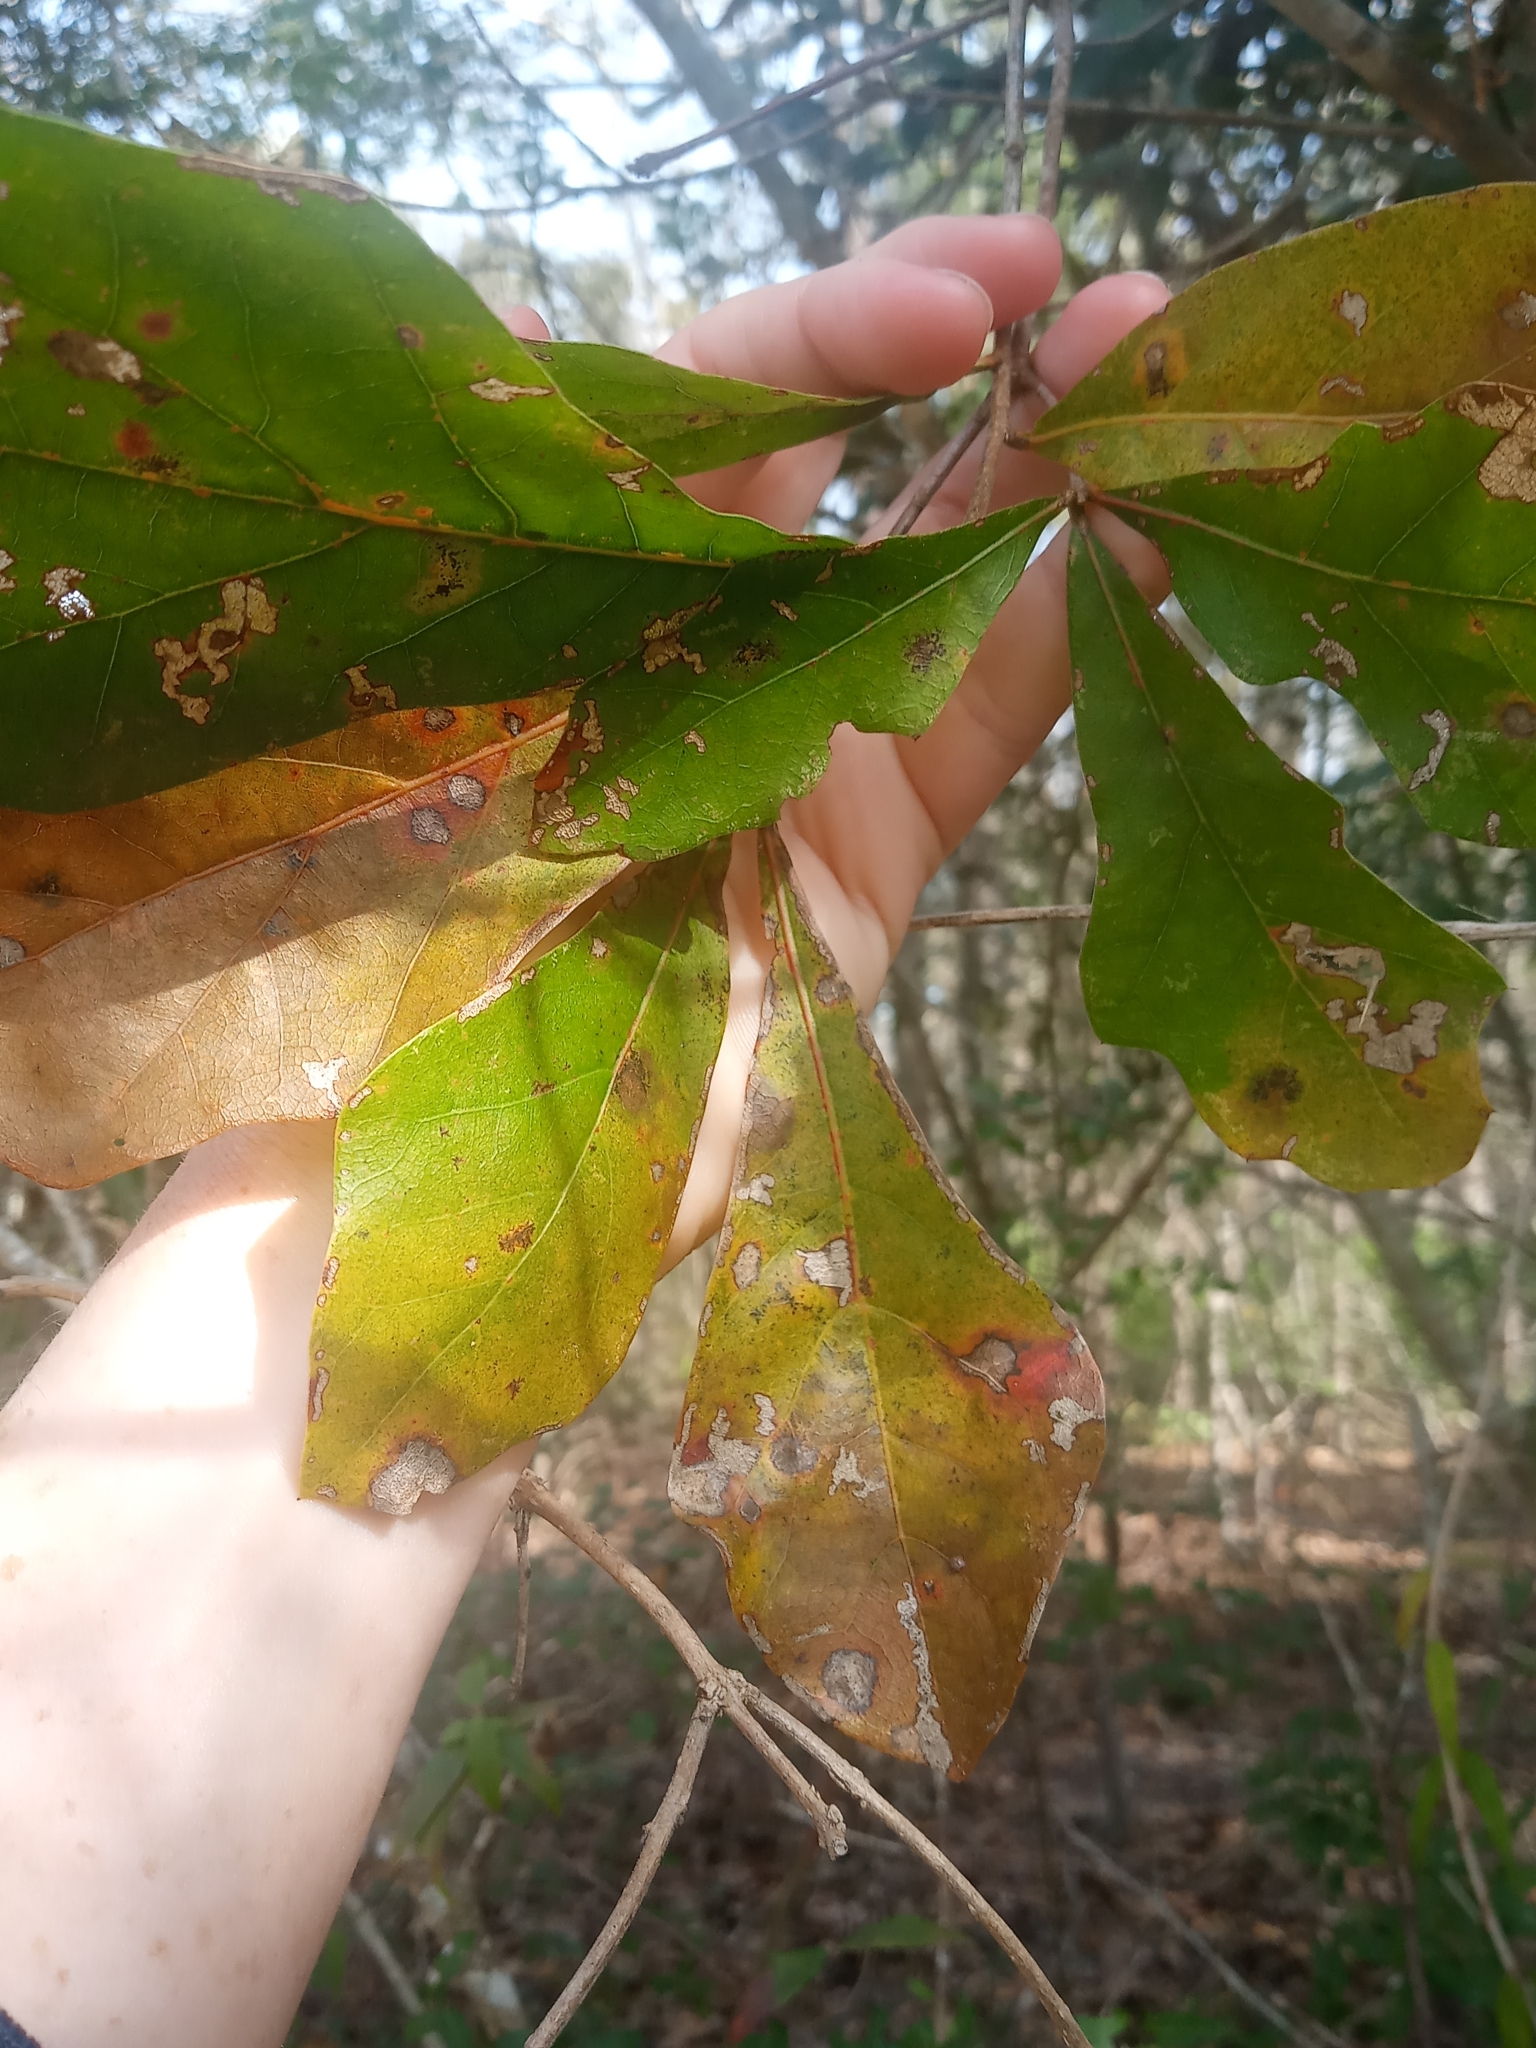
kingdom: Plantae
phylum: Tracheophyta
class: Magnoliopsida
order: Fagales
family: Fagaceae
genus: Quercus
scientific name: Quercus nigra
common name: Water oak
